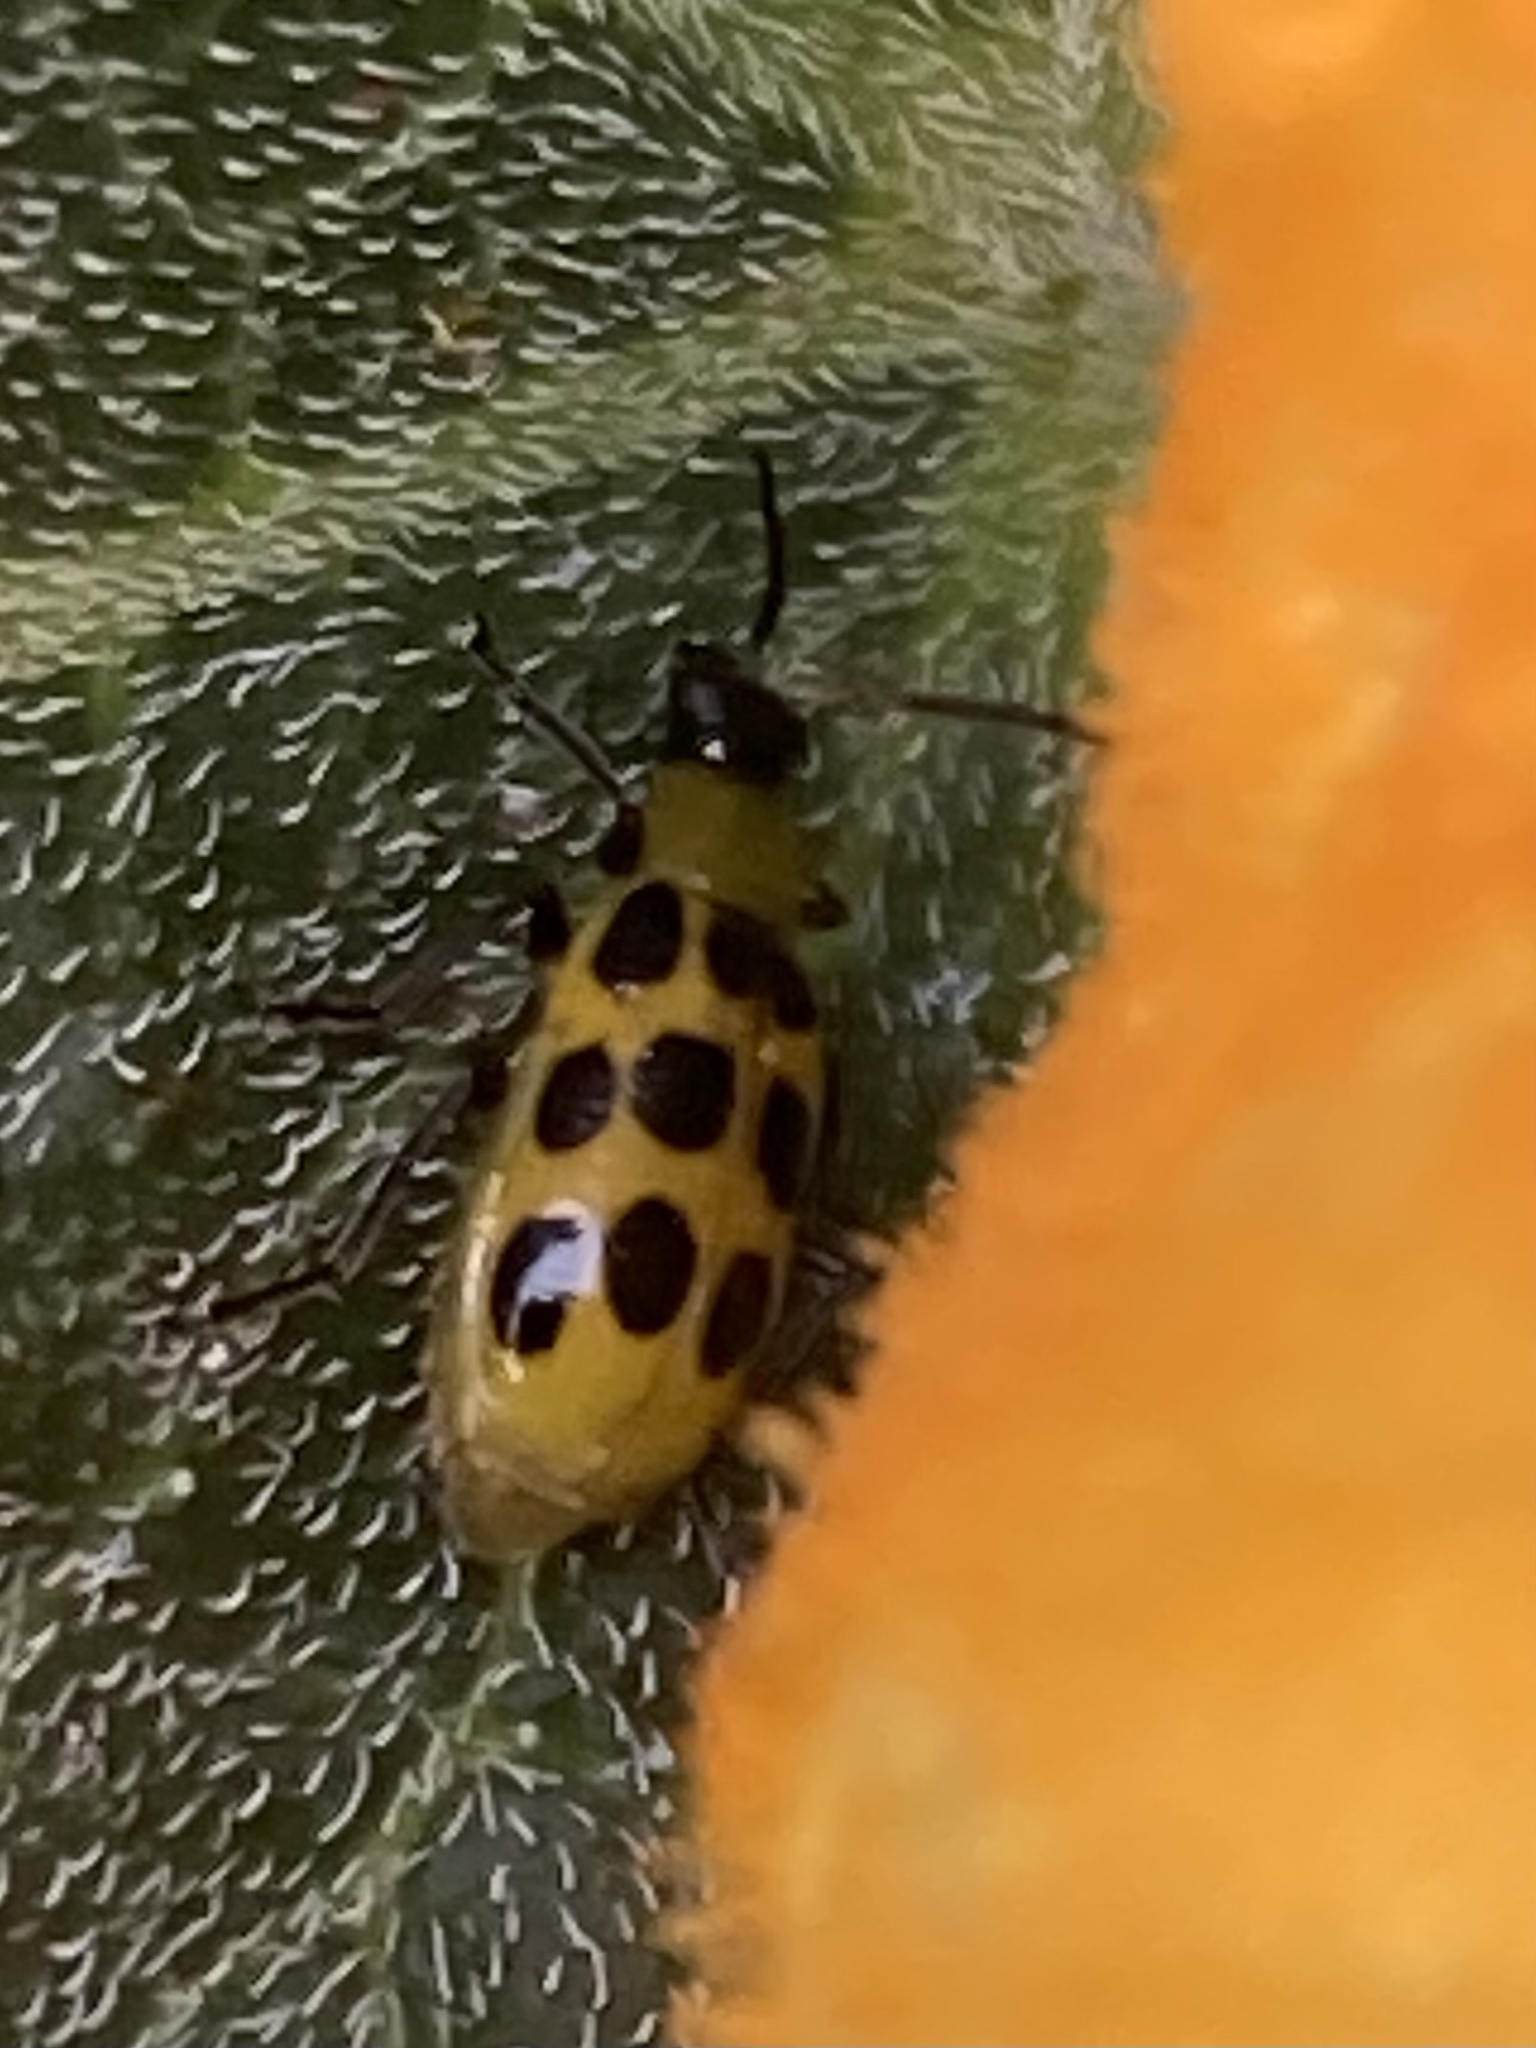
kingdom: Animalia
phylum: Arthropoda
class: Insecta
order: Coleoptera
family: Chrysomelidae
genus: Diabrotica
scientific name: Diabrotica undecimpunctata
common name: Spotted cucumber beetle
